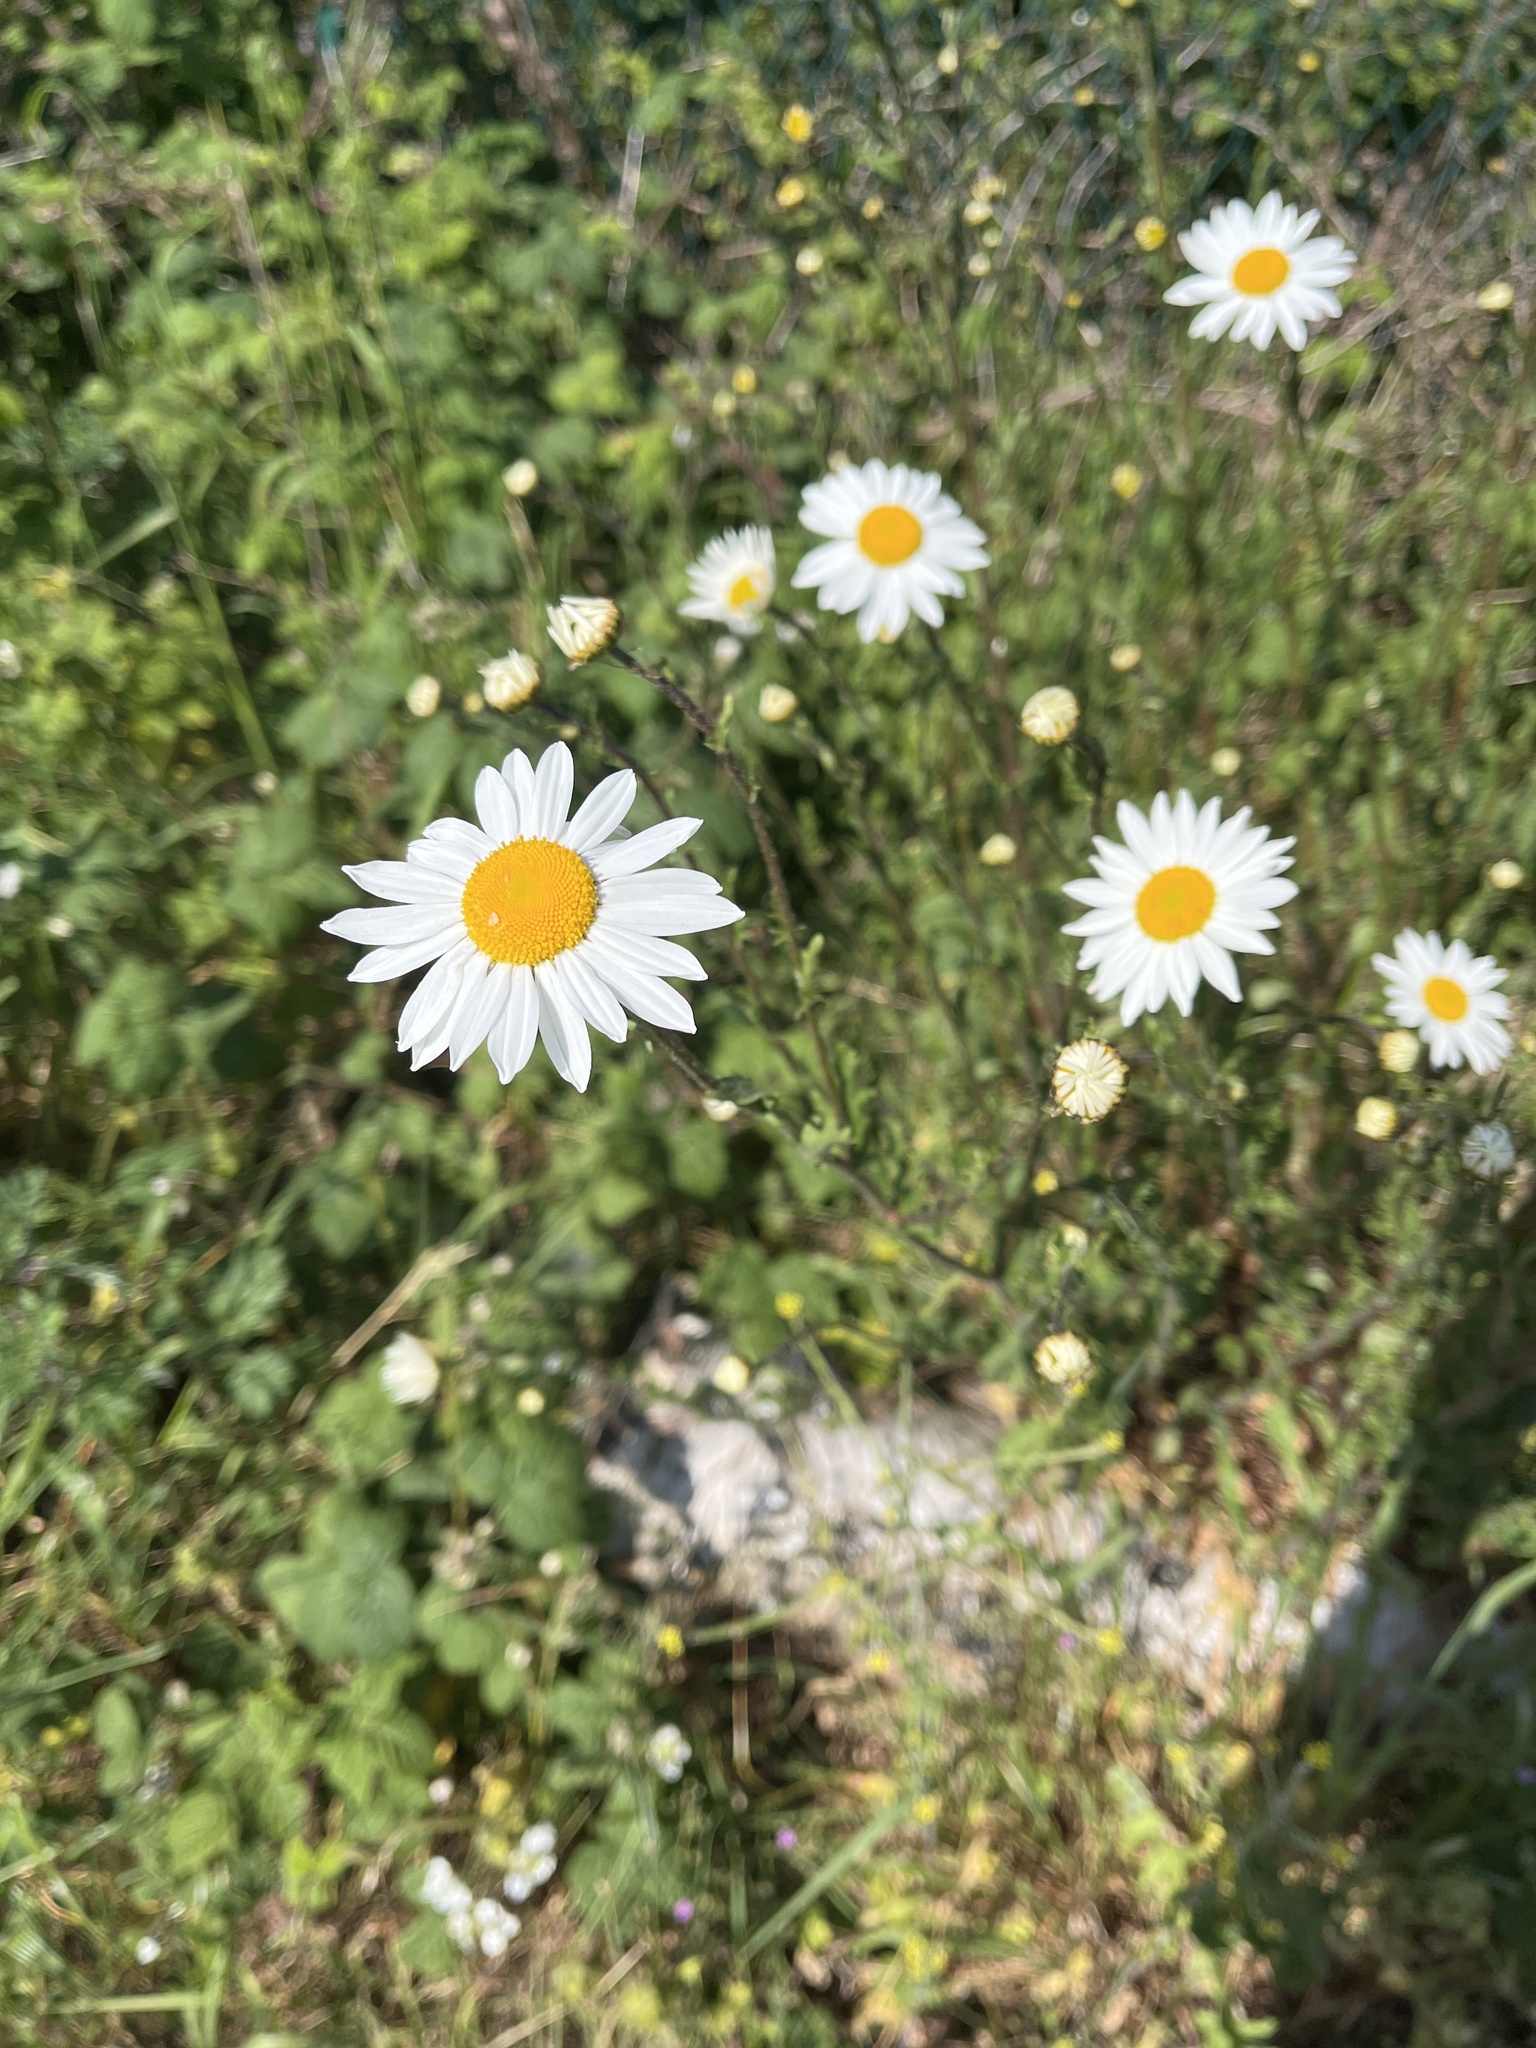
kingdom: Plantae
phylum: Tracheophyta
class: Magnoliopsida
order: Asterales
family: Asteraceae
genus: Leucanthemum
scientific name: Leucanthemum vulgare
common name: Oxeye daisy
